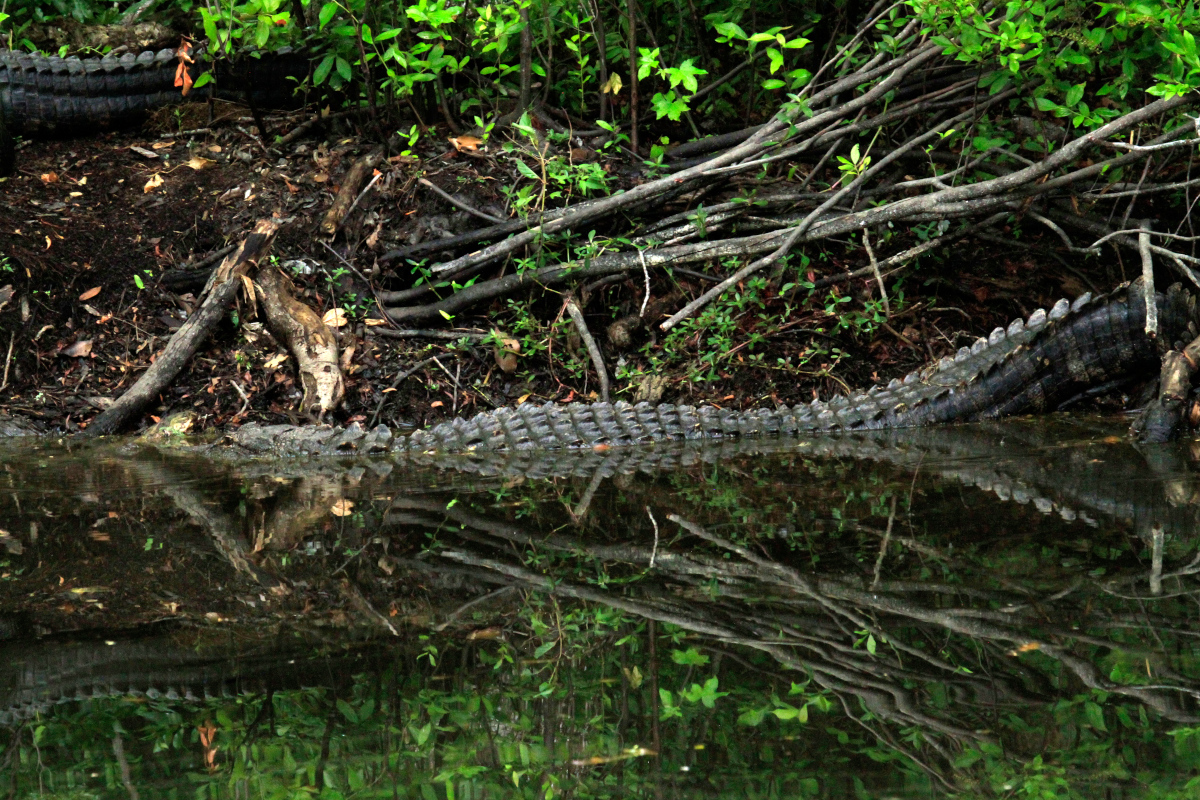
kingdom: Animalia
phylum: Chordata
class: Crocodylia
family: Alligatoridae
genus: Alligator
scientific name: Alligator mississippiensis
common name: American alligator
